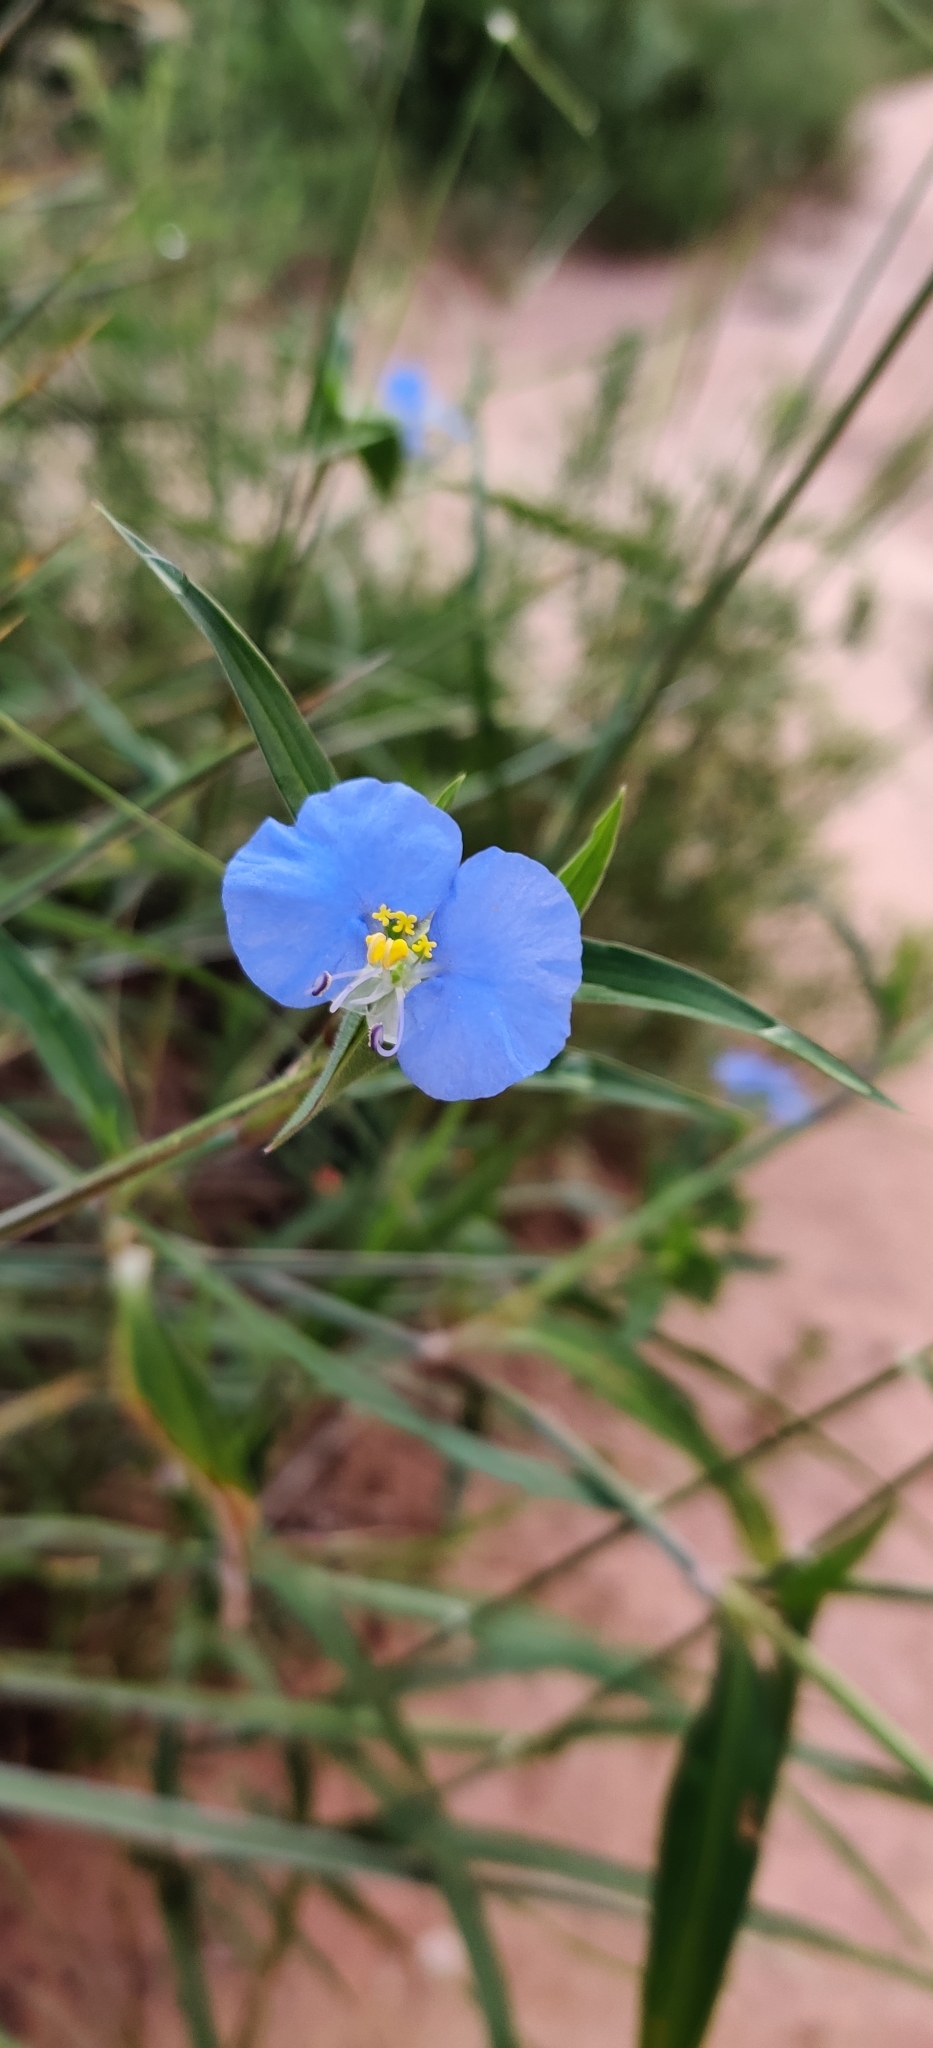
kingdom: Plantae
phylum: Tracheophyta
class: Liliopsida
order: Commelinales
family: Commelinaceae
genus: Commelina
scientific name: Commelina erecta
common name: Blousel blommetjie
